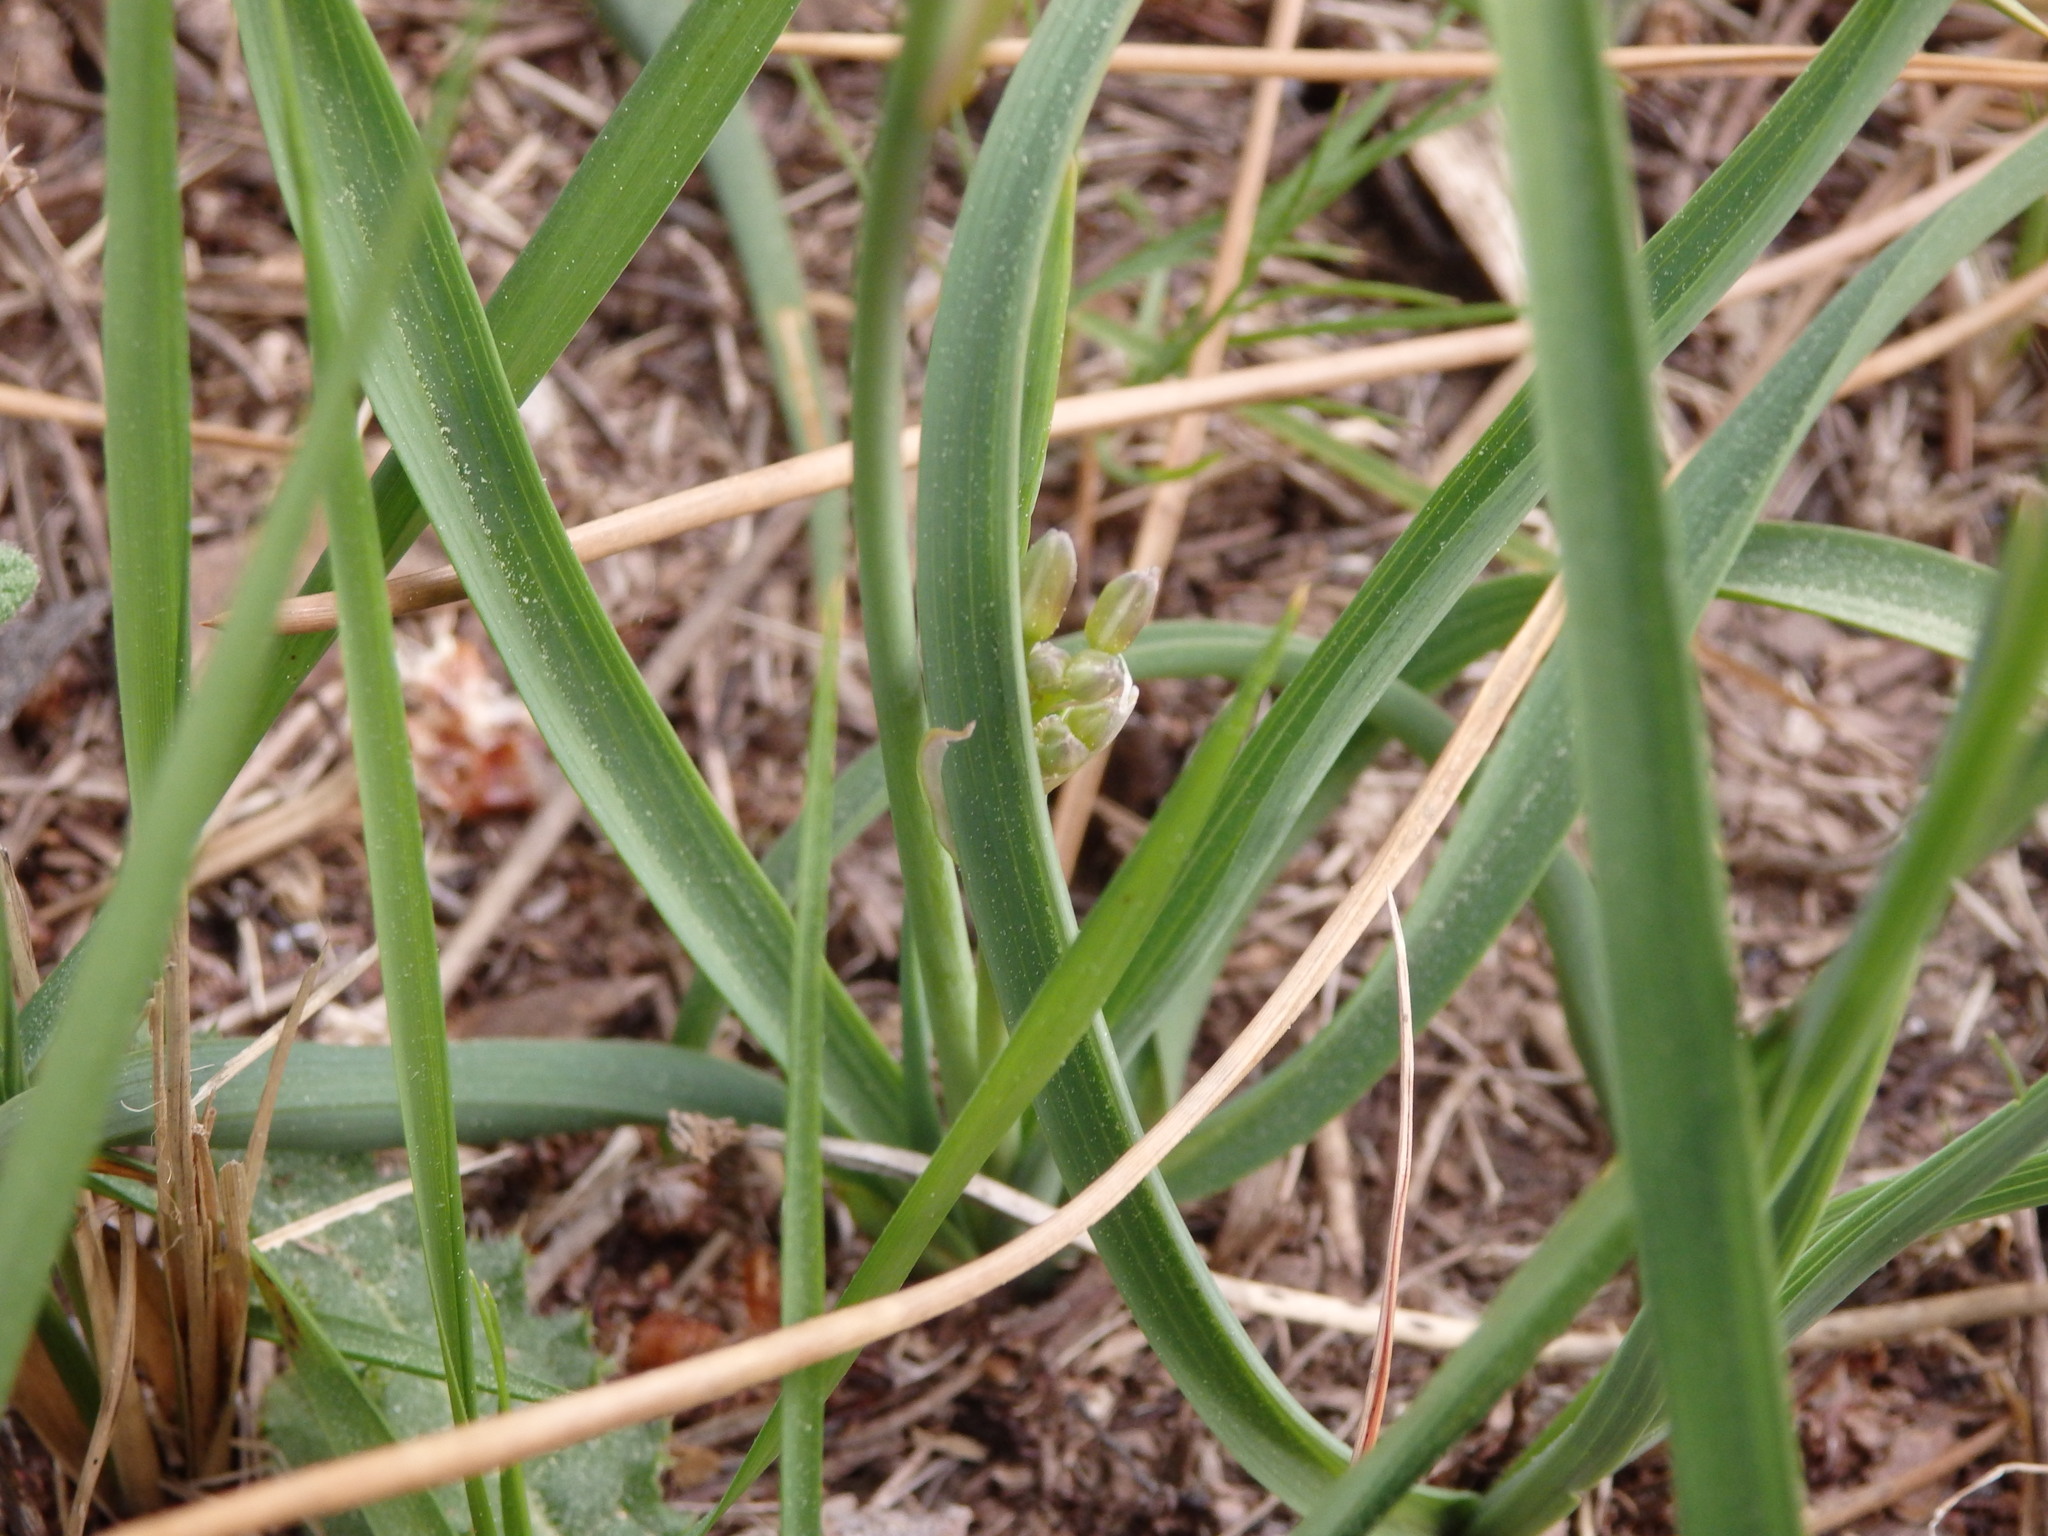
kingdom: Plantae
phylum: Tracheophyta
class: Liliopsida
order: Asparagales
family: Asphodelaceae
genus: Simethis
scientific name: Simethis mattiazzii
